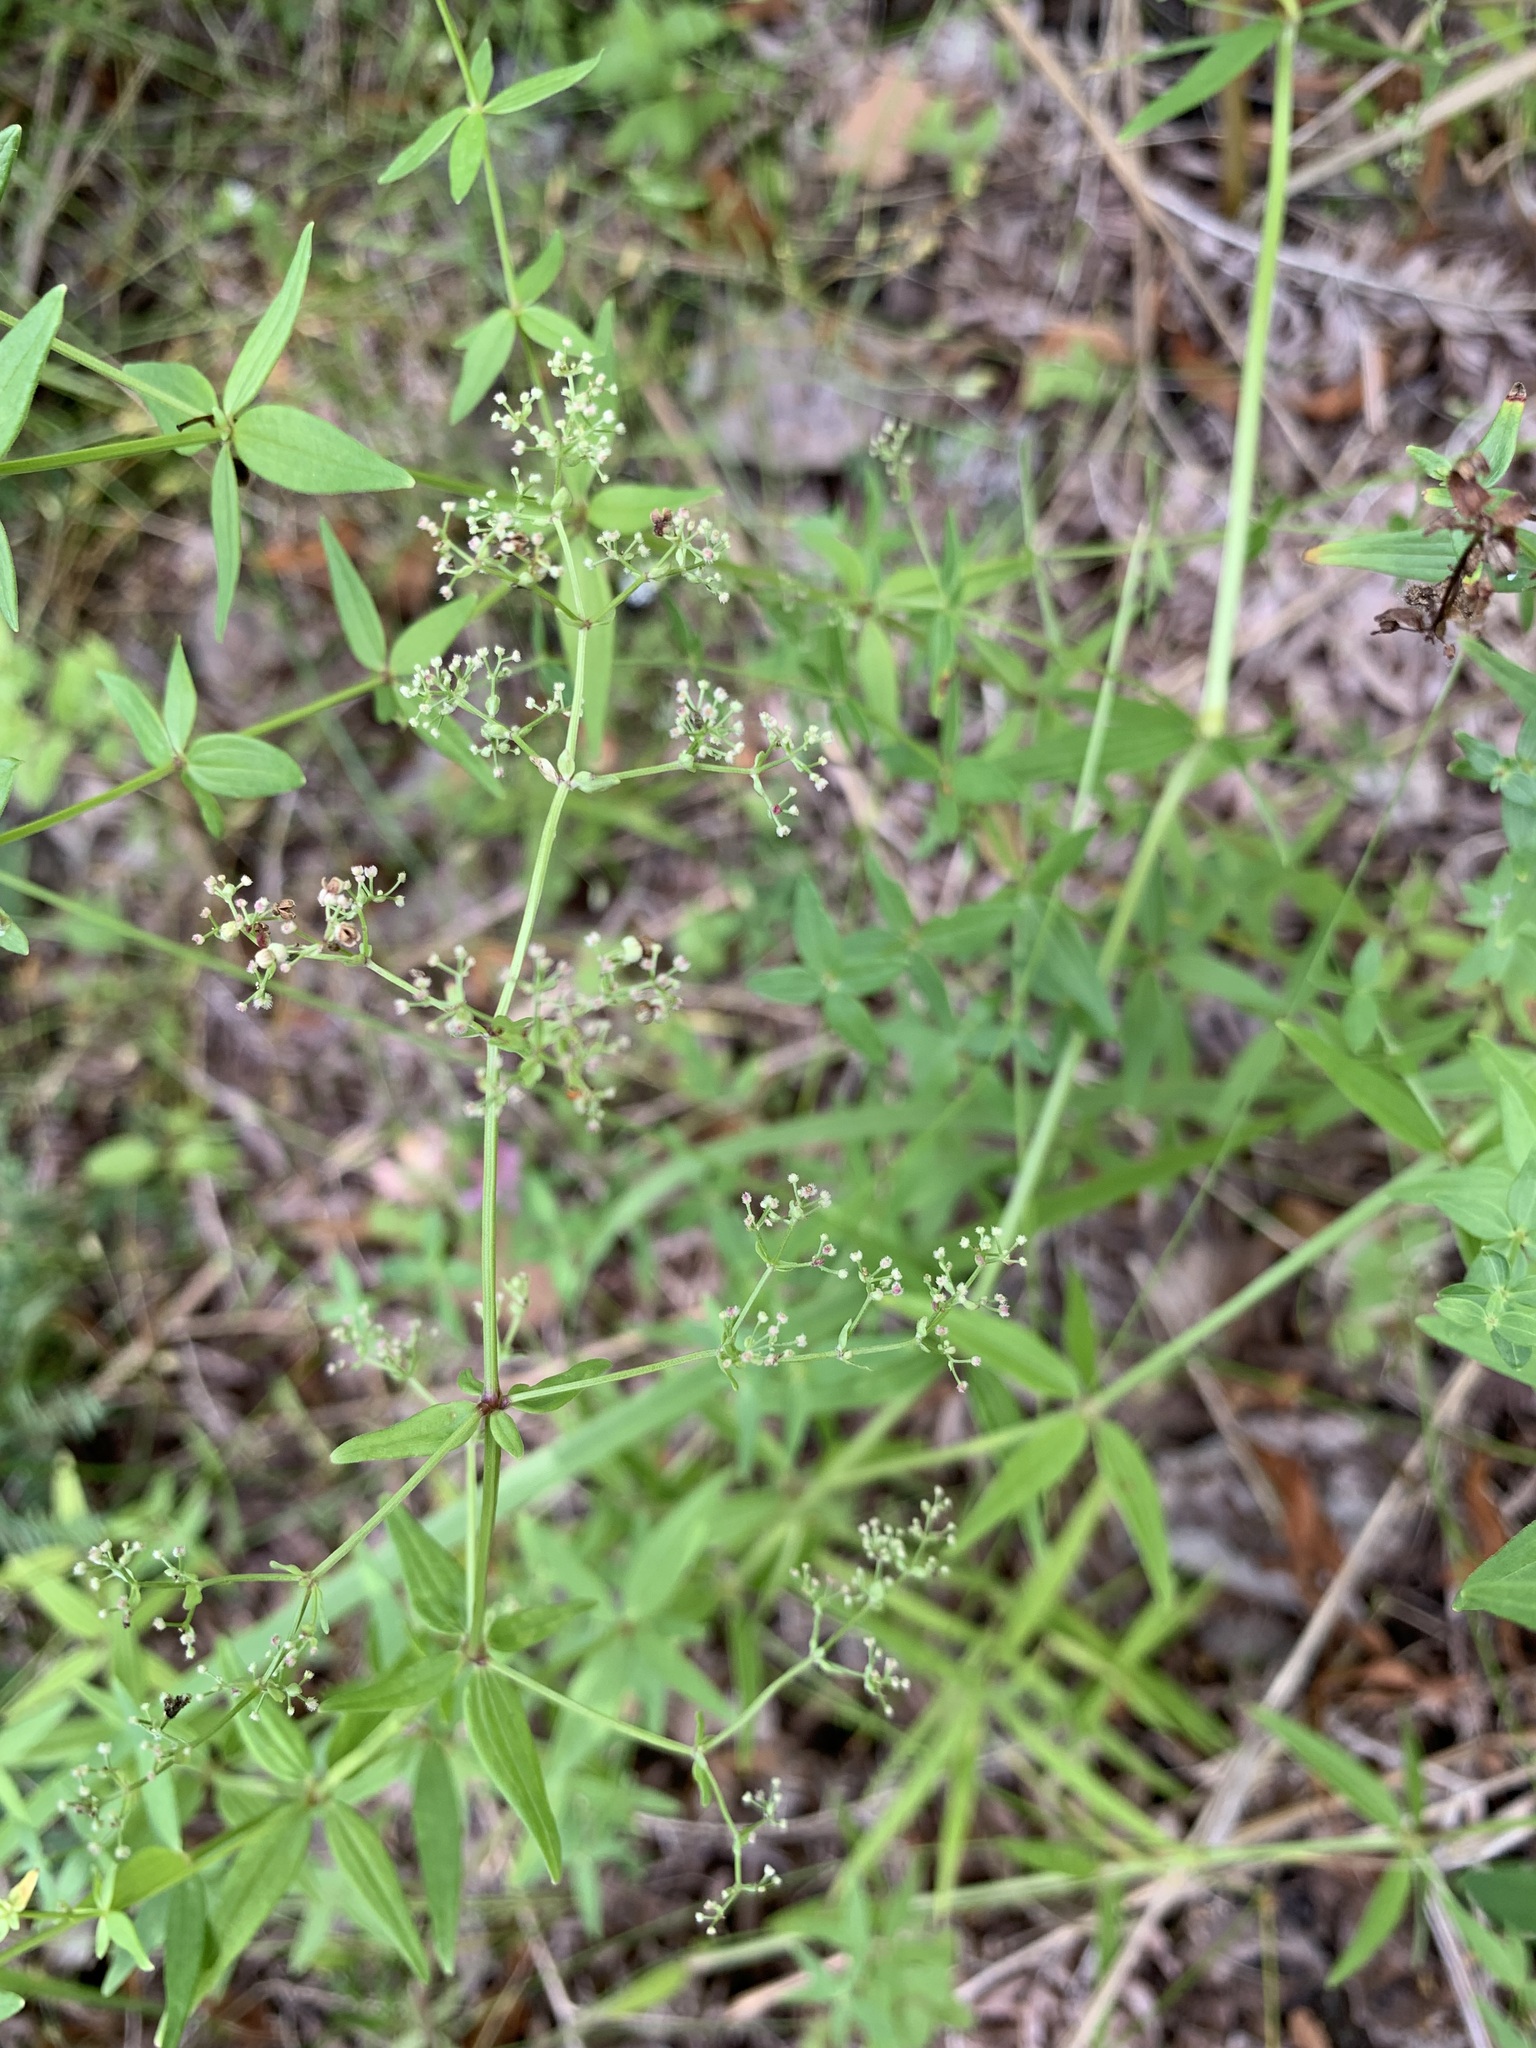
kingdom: Plantae
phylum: Tracheophyta
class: Magnoliopsida
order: Gentianales
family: Rubiaceae
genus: Galium
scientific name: Galium boreale
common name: Northern bedstraw
